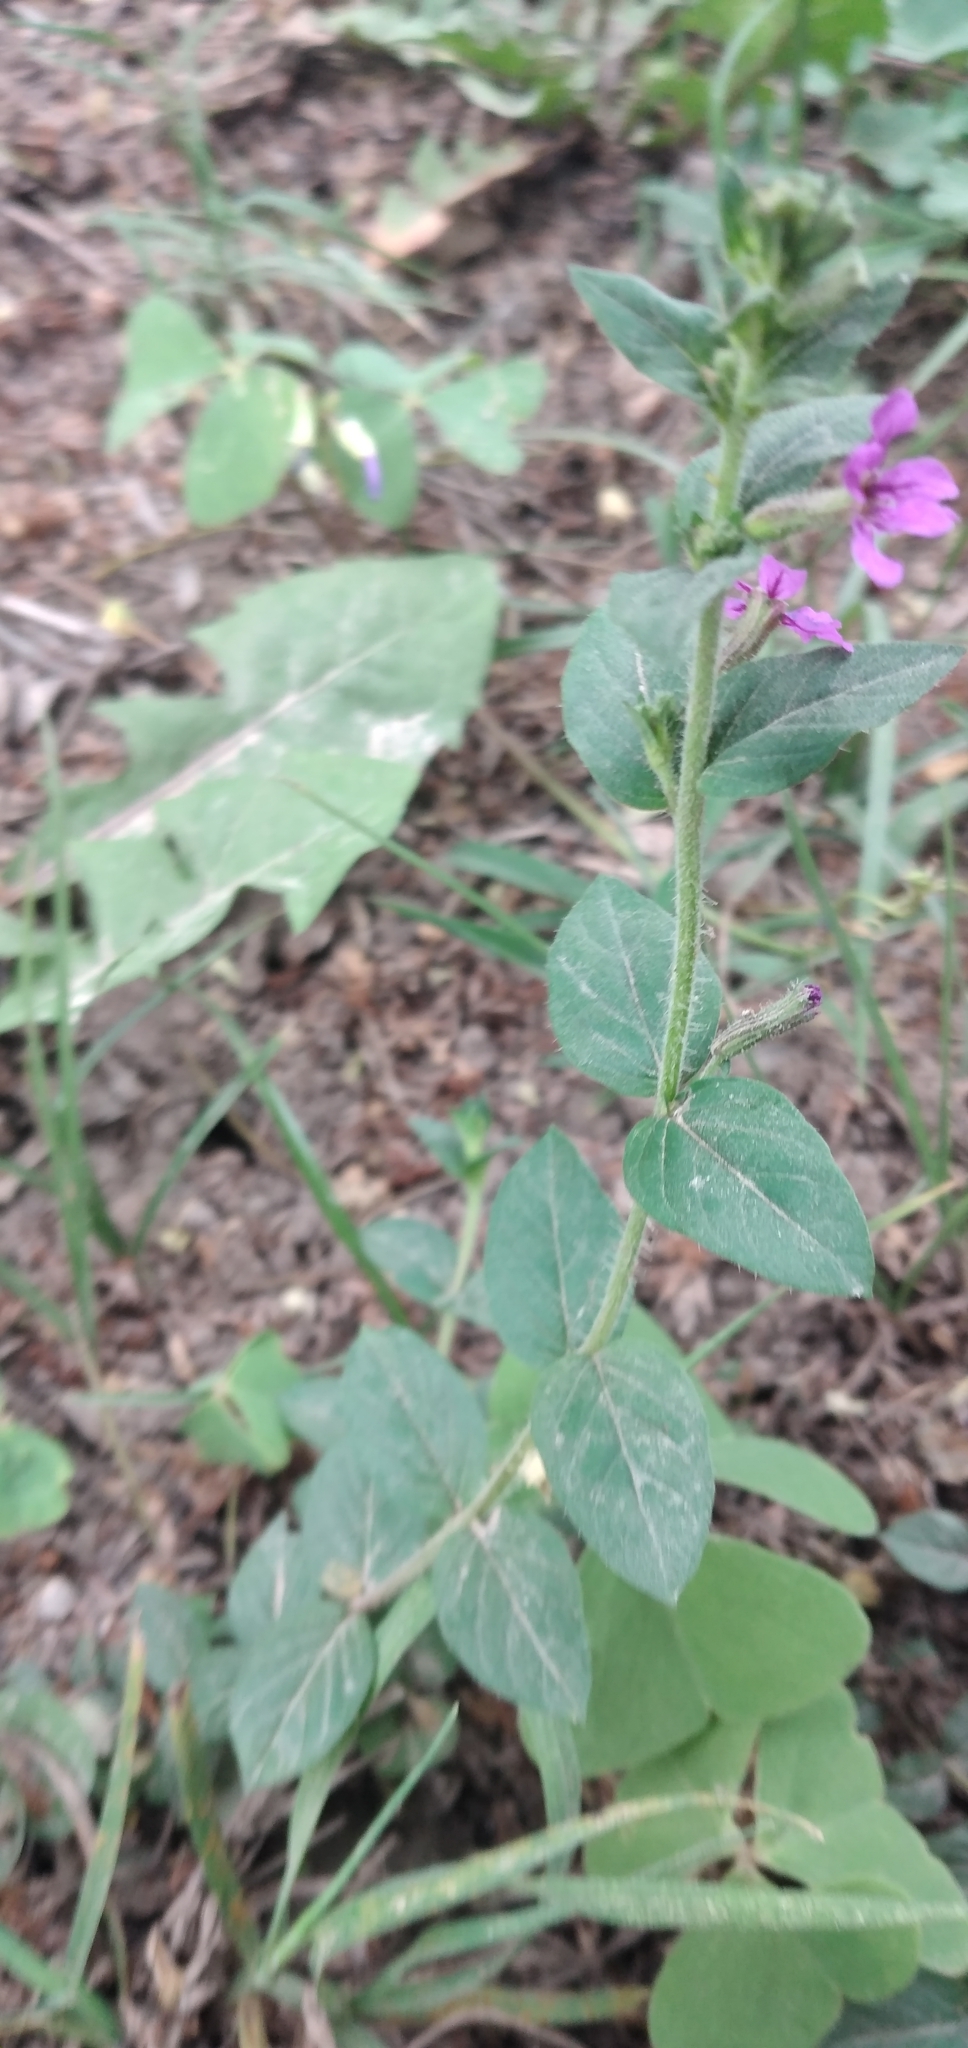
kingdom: Plantae
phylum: Tracheophyta
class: Magnoliopsida
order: Myrtales
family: Lythraceae
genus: Cuphea
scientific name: Cuphea carthagenensis
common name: Colombian waxweed
